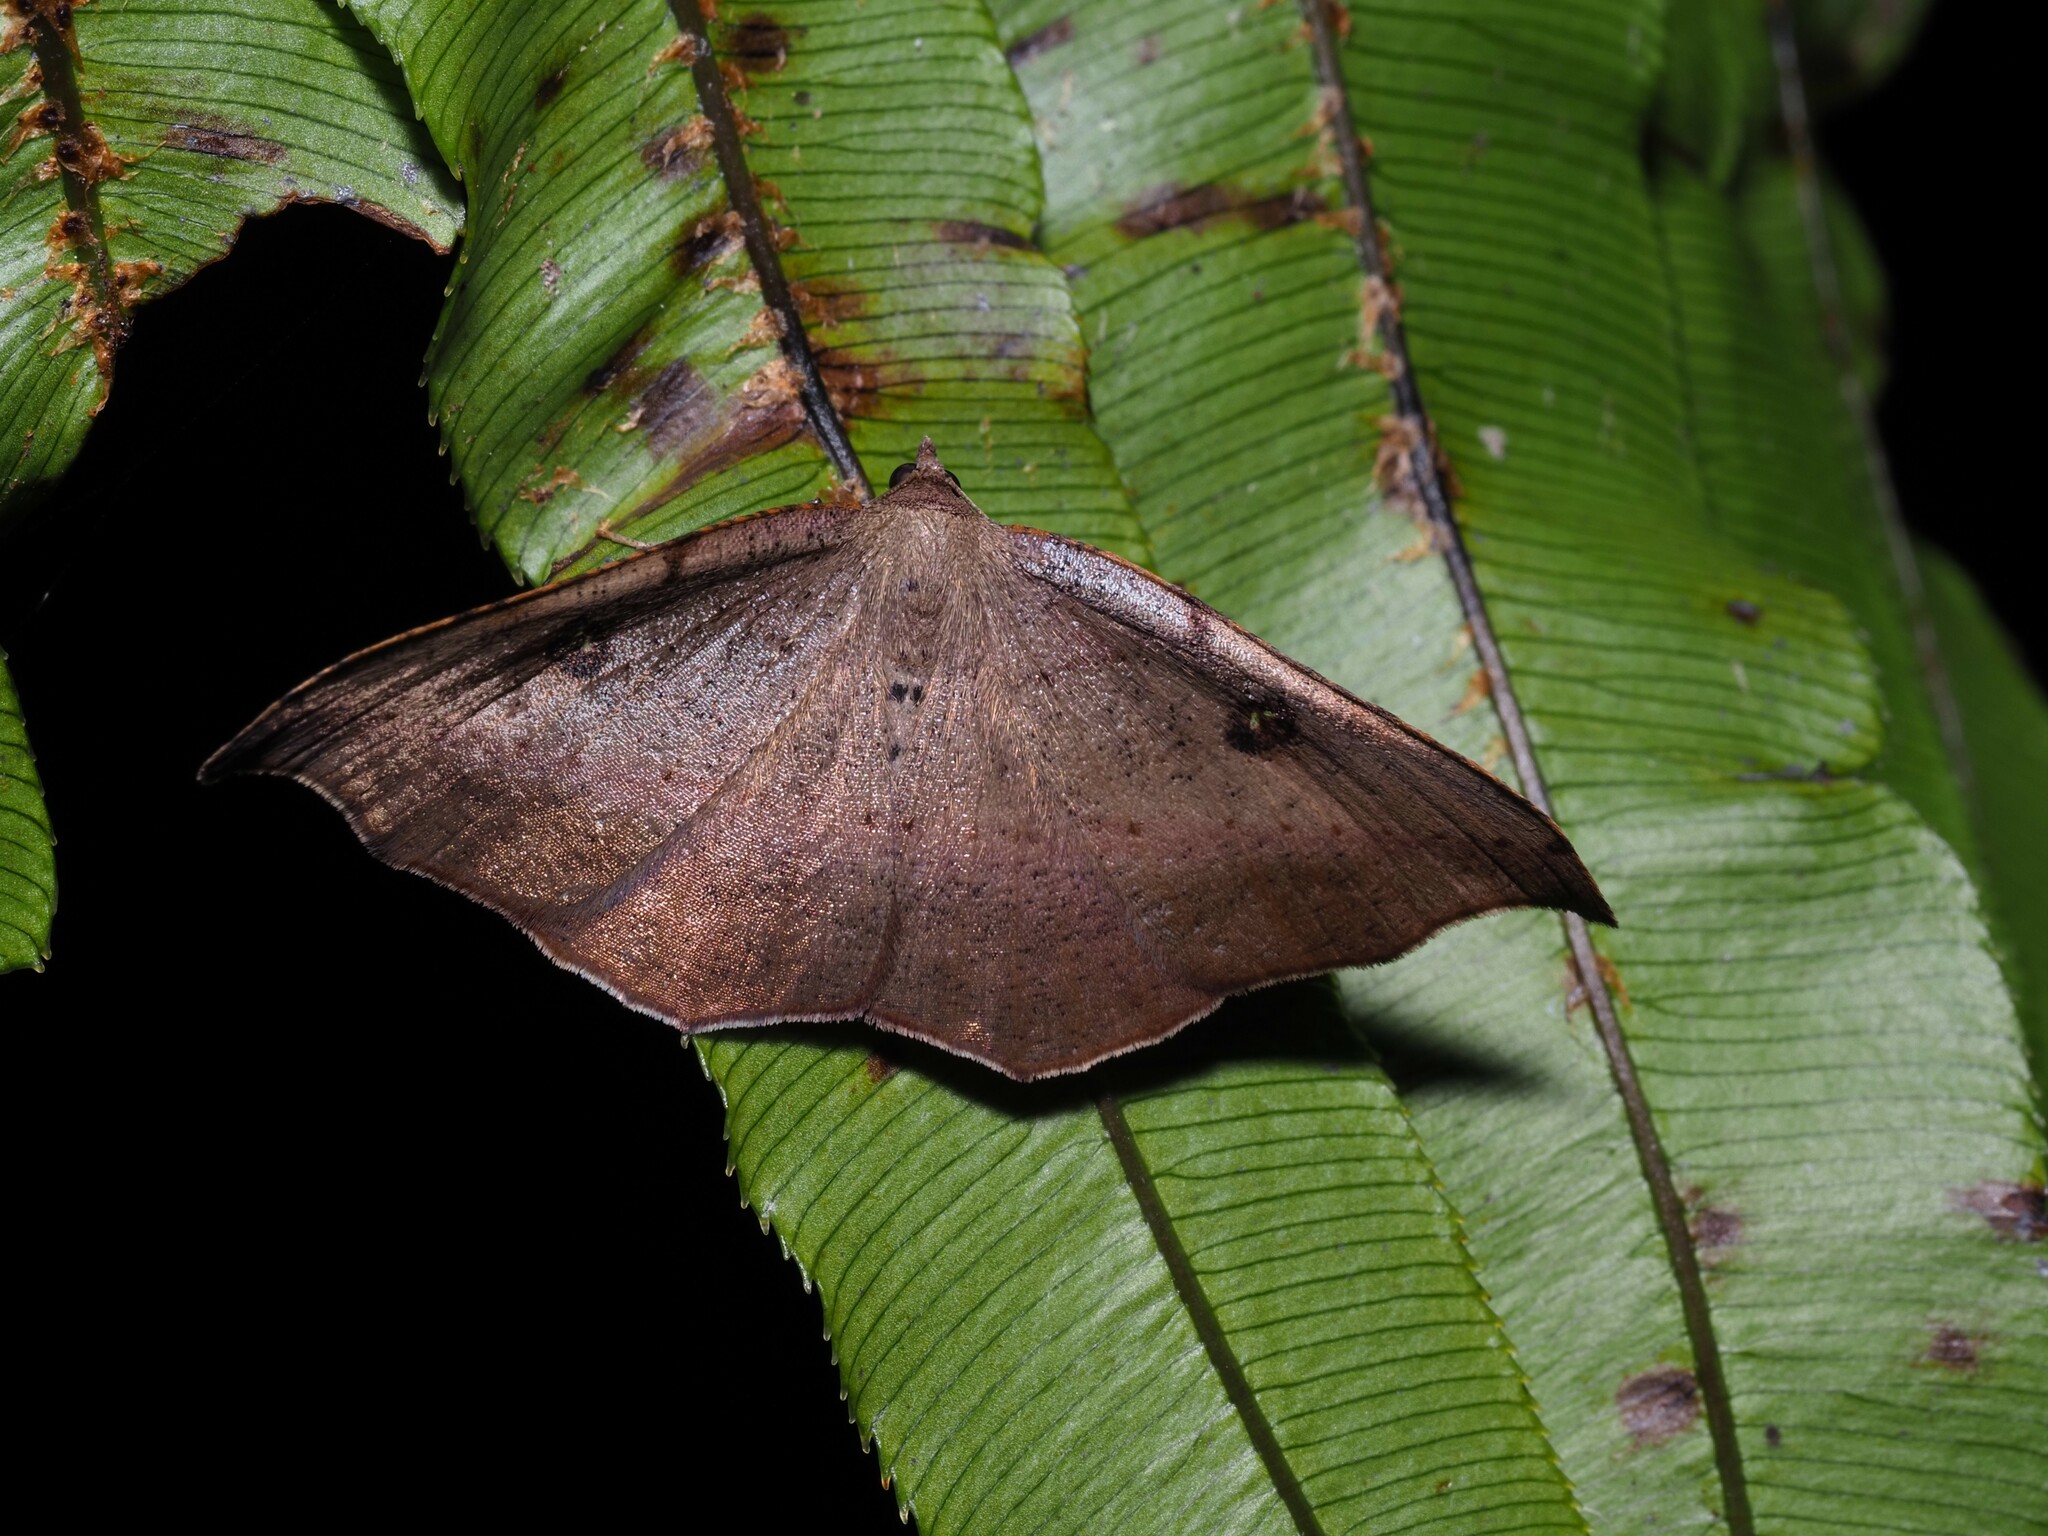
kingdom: Animalia
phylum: Arthropoda
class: Insecta
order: Lepidoptera
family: Geometridae
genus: Sarisa
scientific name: Sarisa muriferata
